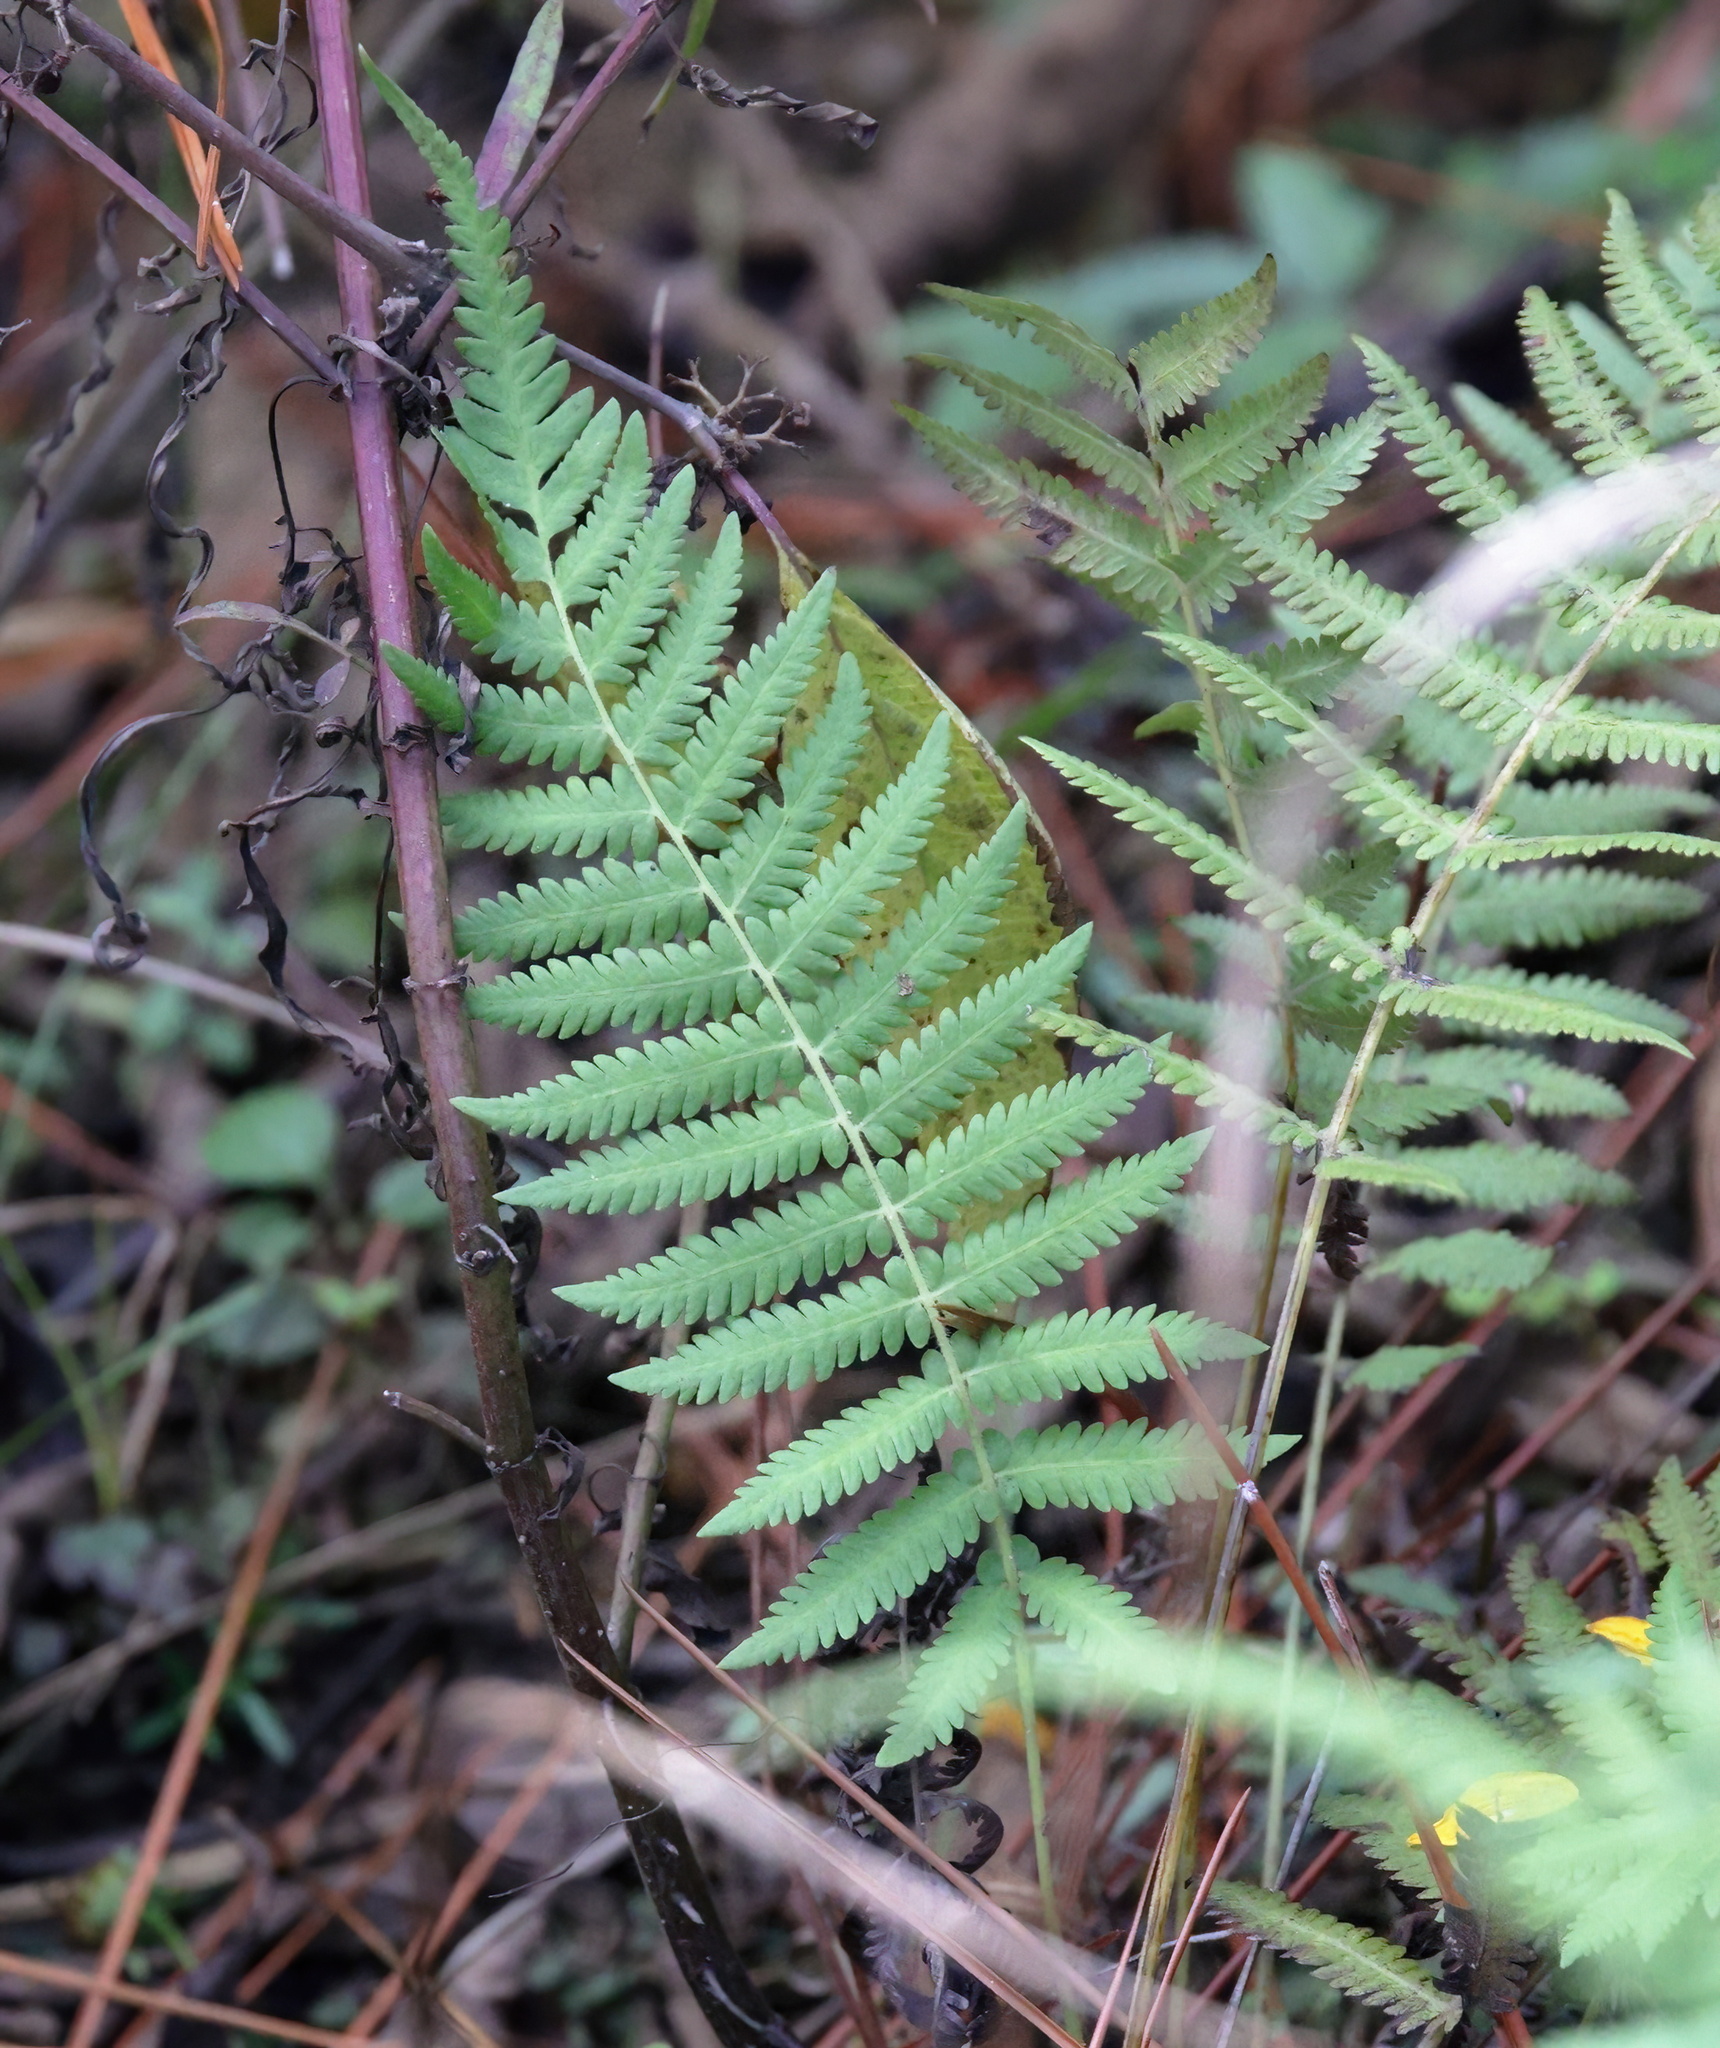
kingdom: Plantae
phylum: Tracheophyta
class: Polypodiopsida
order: Polypodiales
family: Thelypteridaceae
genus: Pelazoneuron
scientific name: Pelazoneuron kunthii
